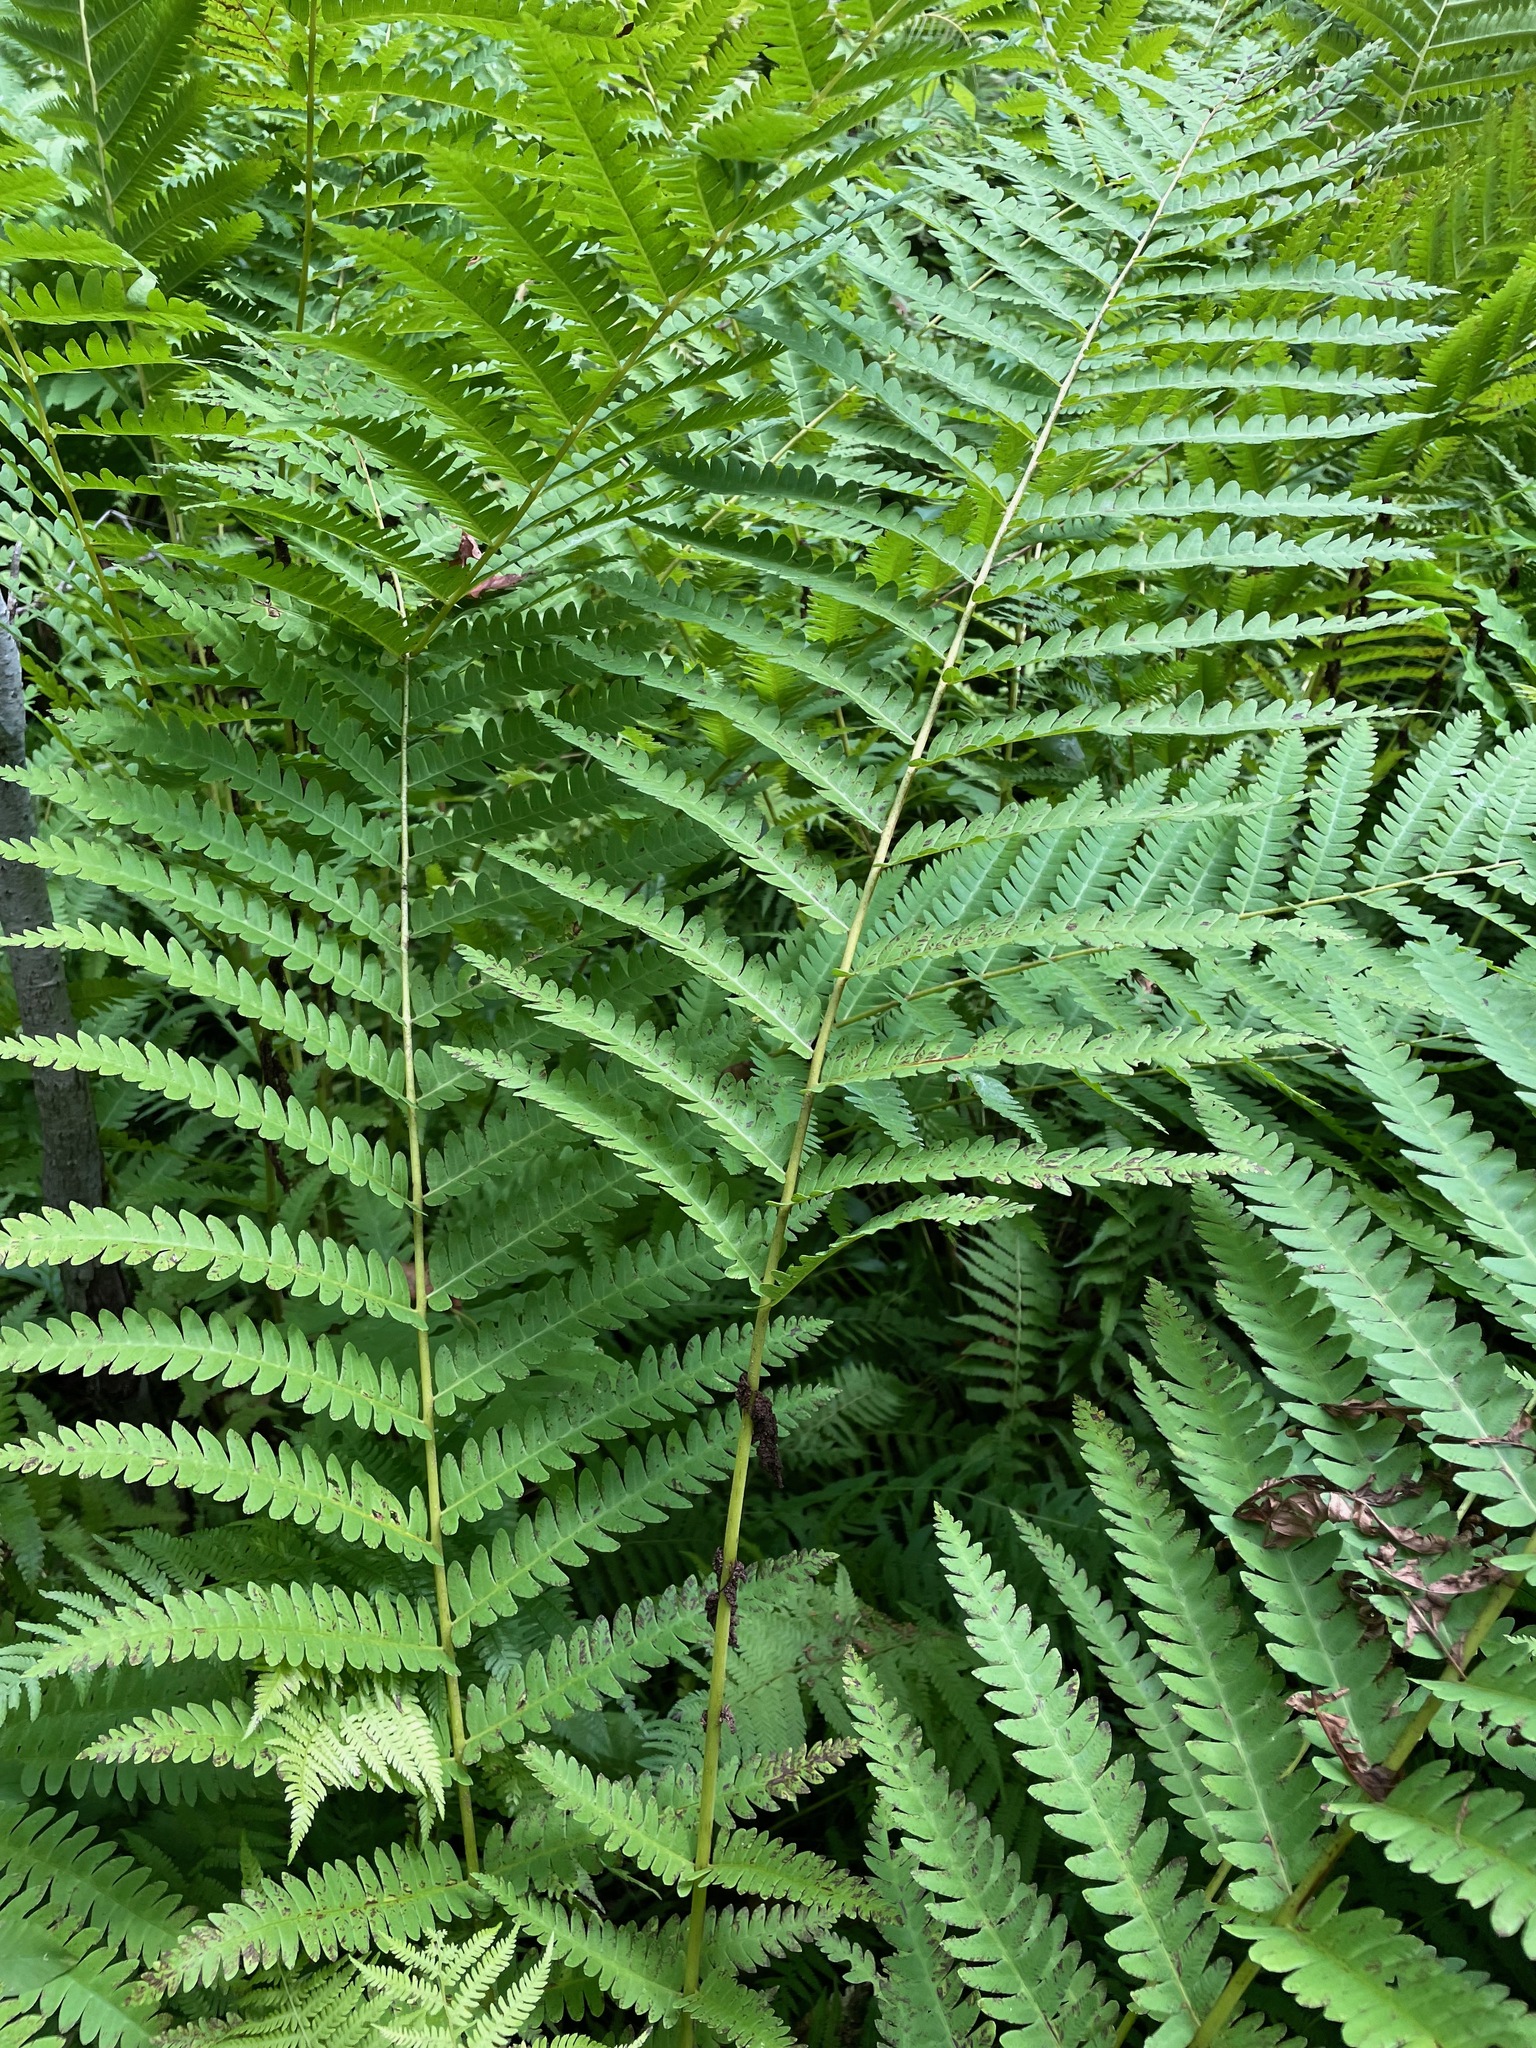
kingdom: Plantae
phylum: Tracheophyta
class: Polypodiopsida
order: Osmundales
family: Osmundaceae
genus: Claytosmunda
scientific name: Claytosmunda claytoniana
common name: Clayton's fern
